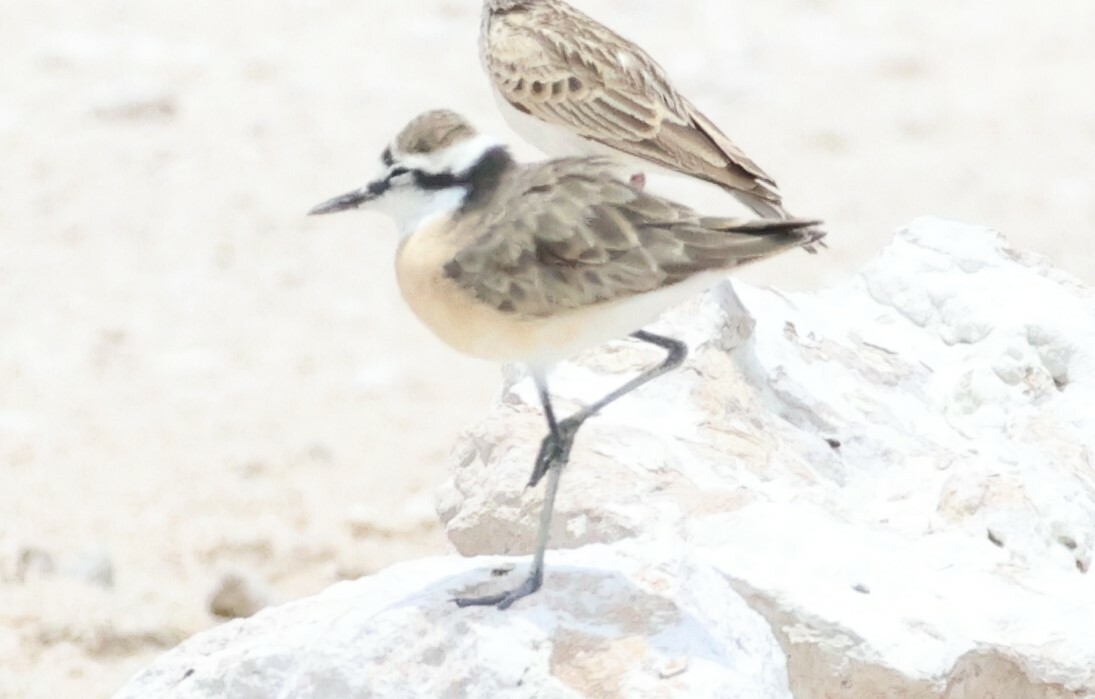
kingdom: Animalia
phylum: Chordata
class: Aves
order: Charadriiformes
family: Charadriidae
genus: Anarhynchus
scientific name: Anarhynchus
